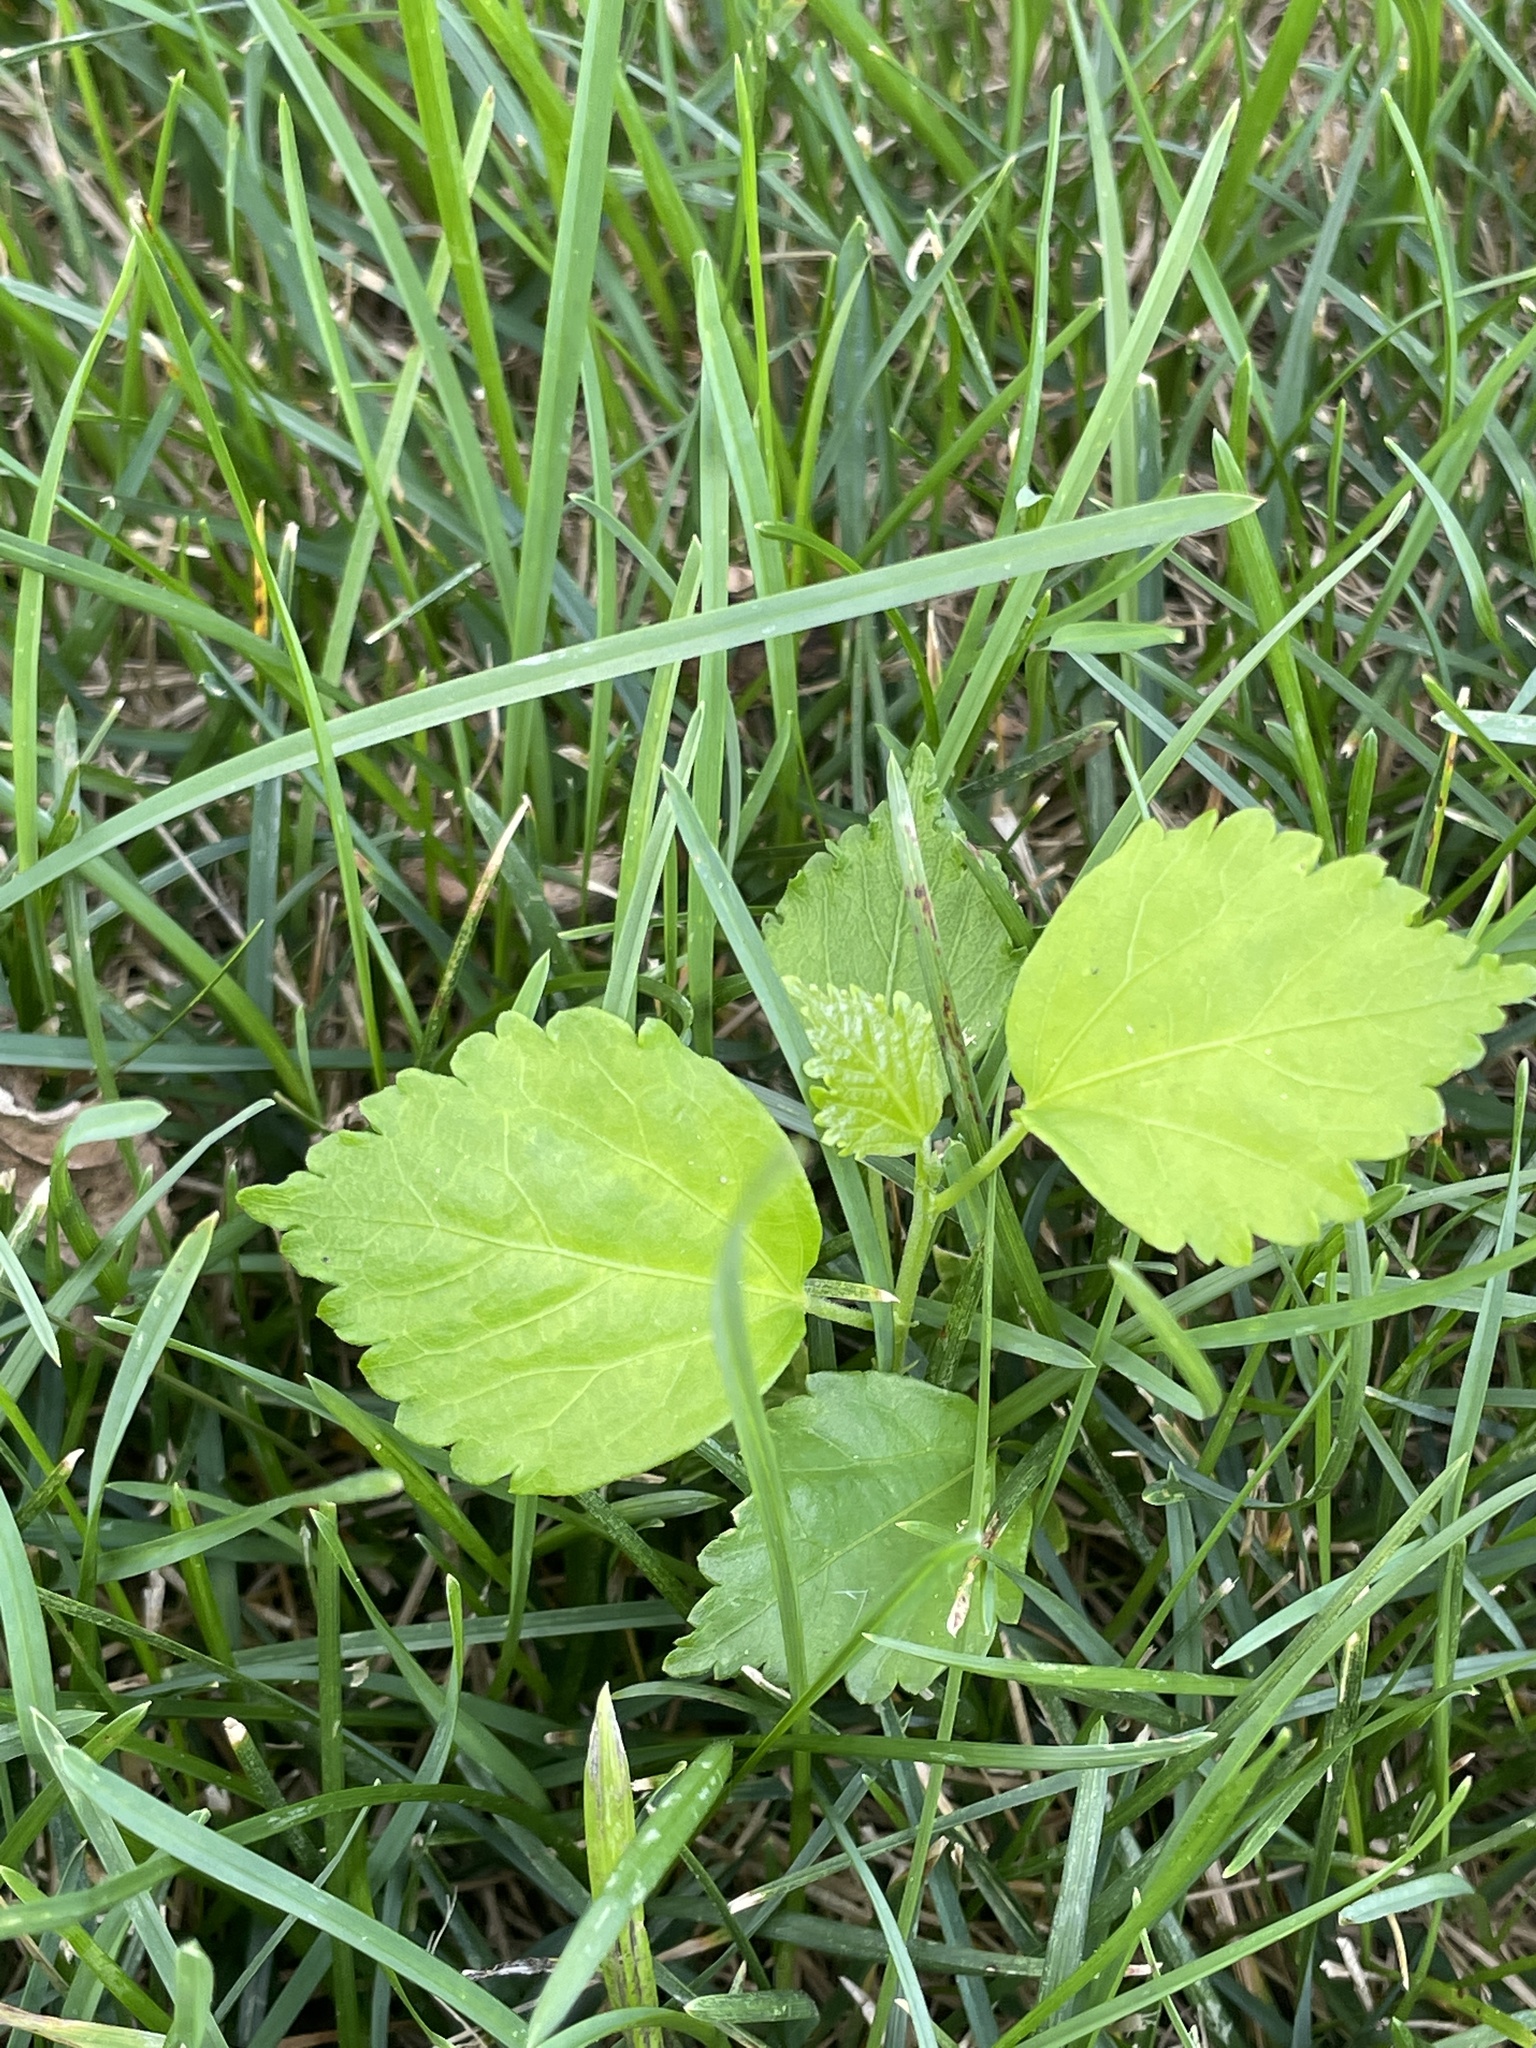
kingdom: Plantae
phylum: Tracheophyta
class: Magnoliopsida
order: Rosales
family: Moraceae
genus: Morus
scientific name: Morus alba
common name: White mulberry
